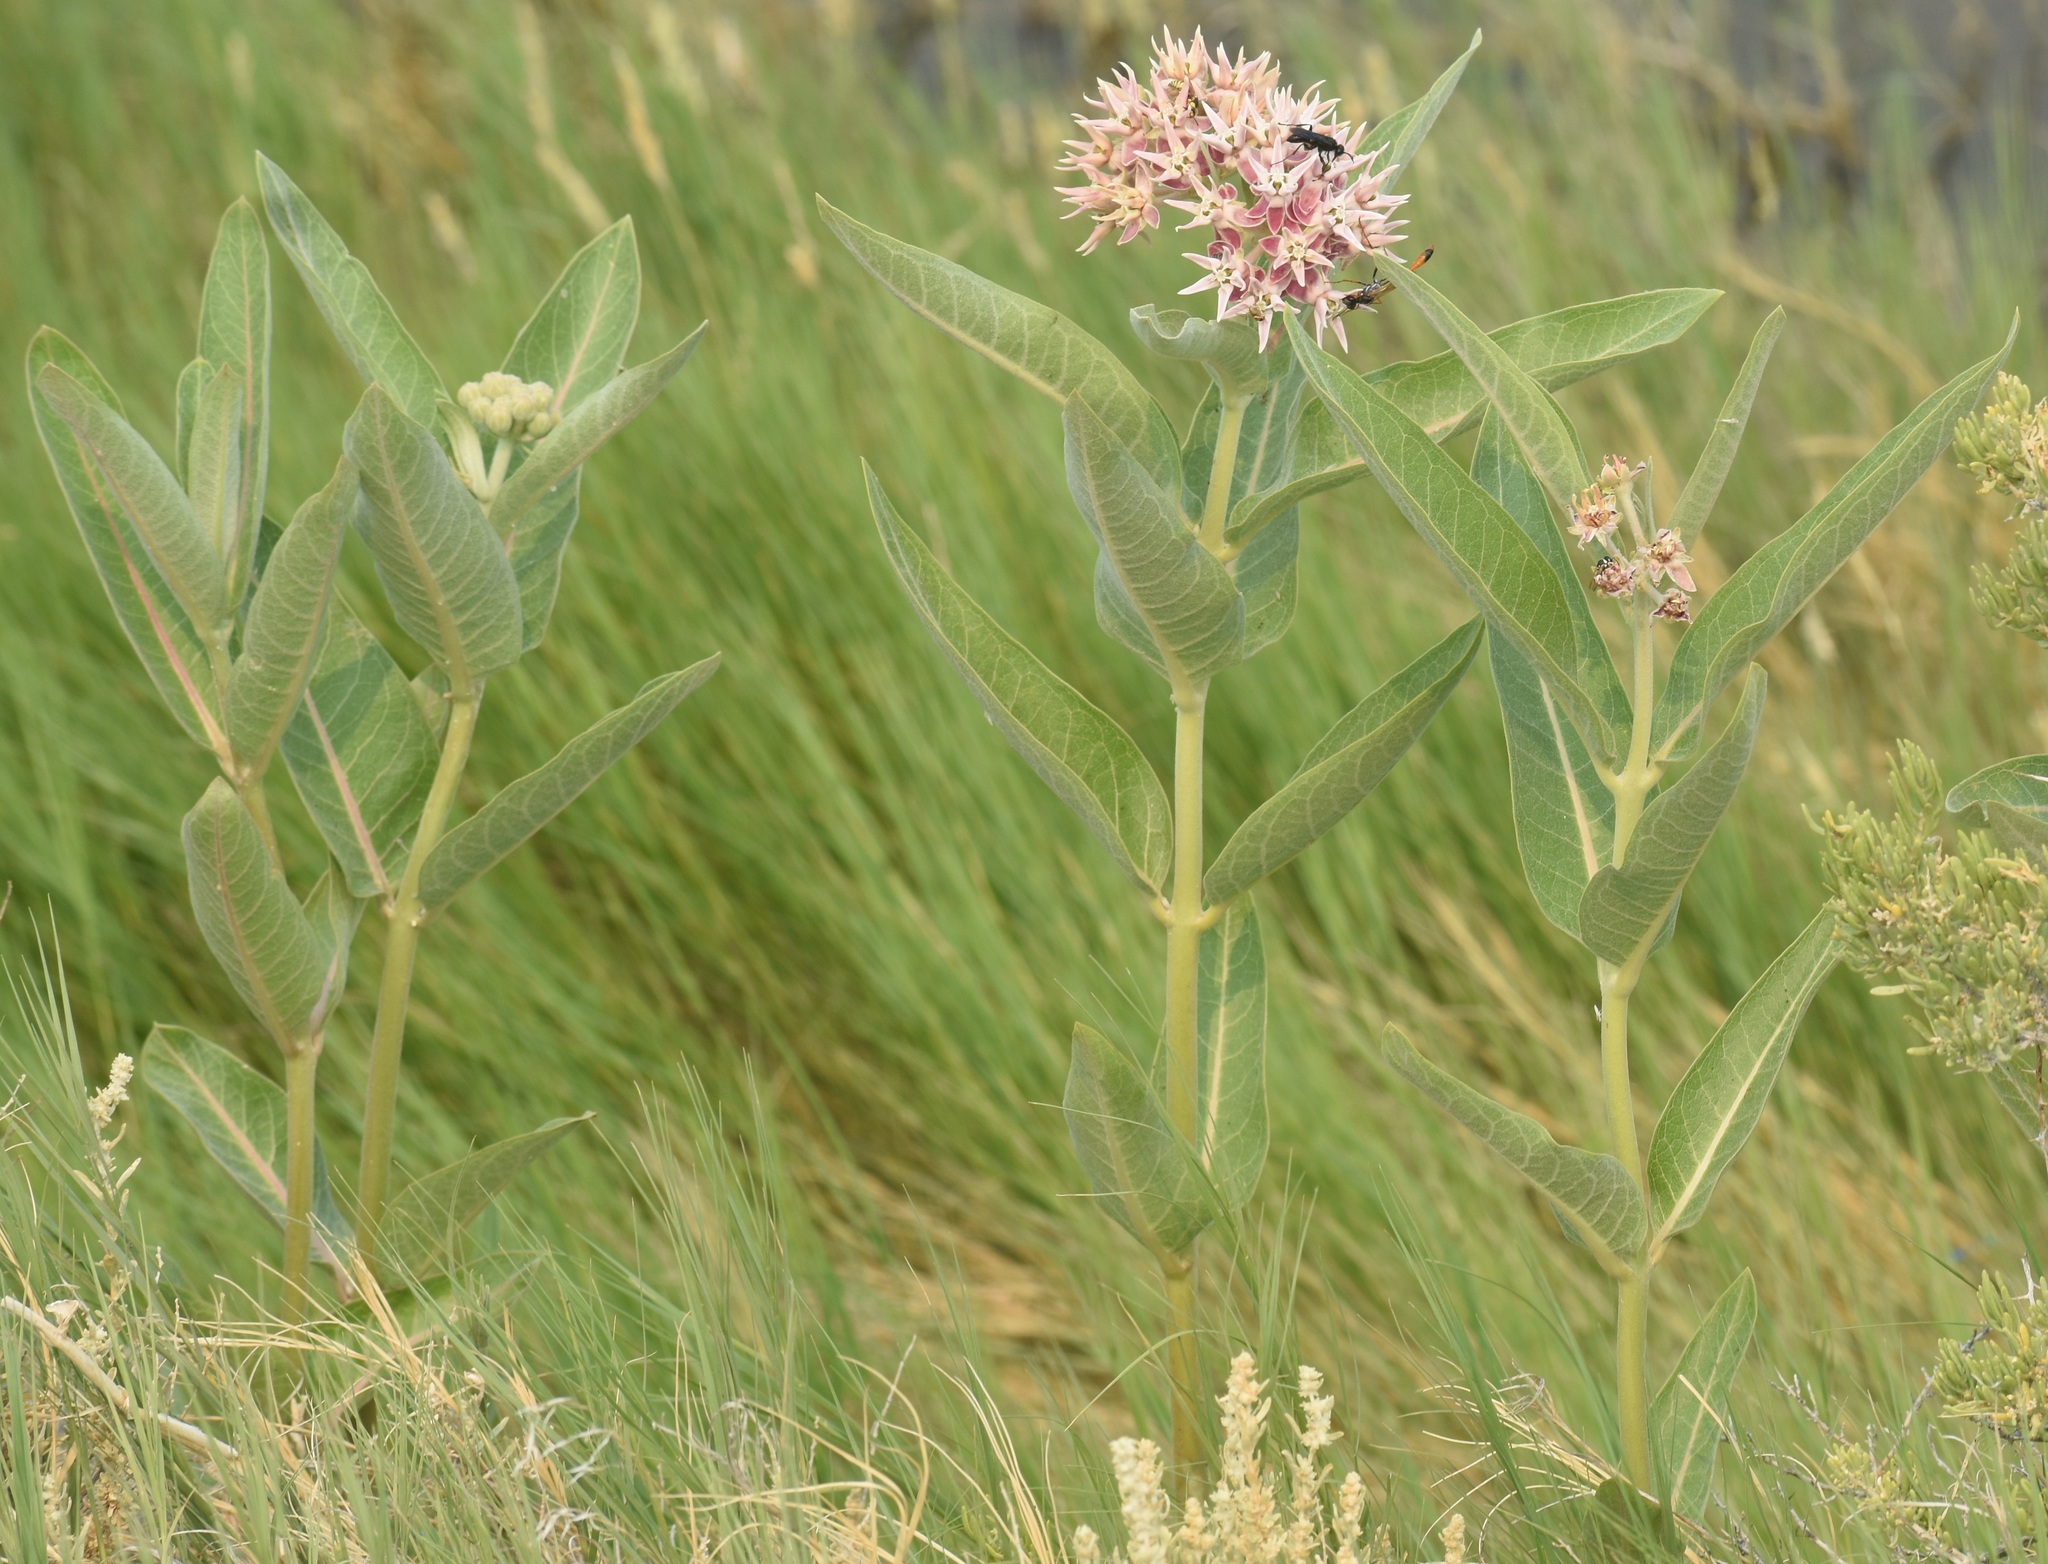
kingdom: Plantae
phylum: Tracheophyta
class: Magnoliopsida
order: Gentianales
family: Apocynaceae
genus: Asclepias
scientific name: Asclepias speciosa
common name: Showy milkweed
